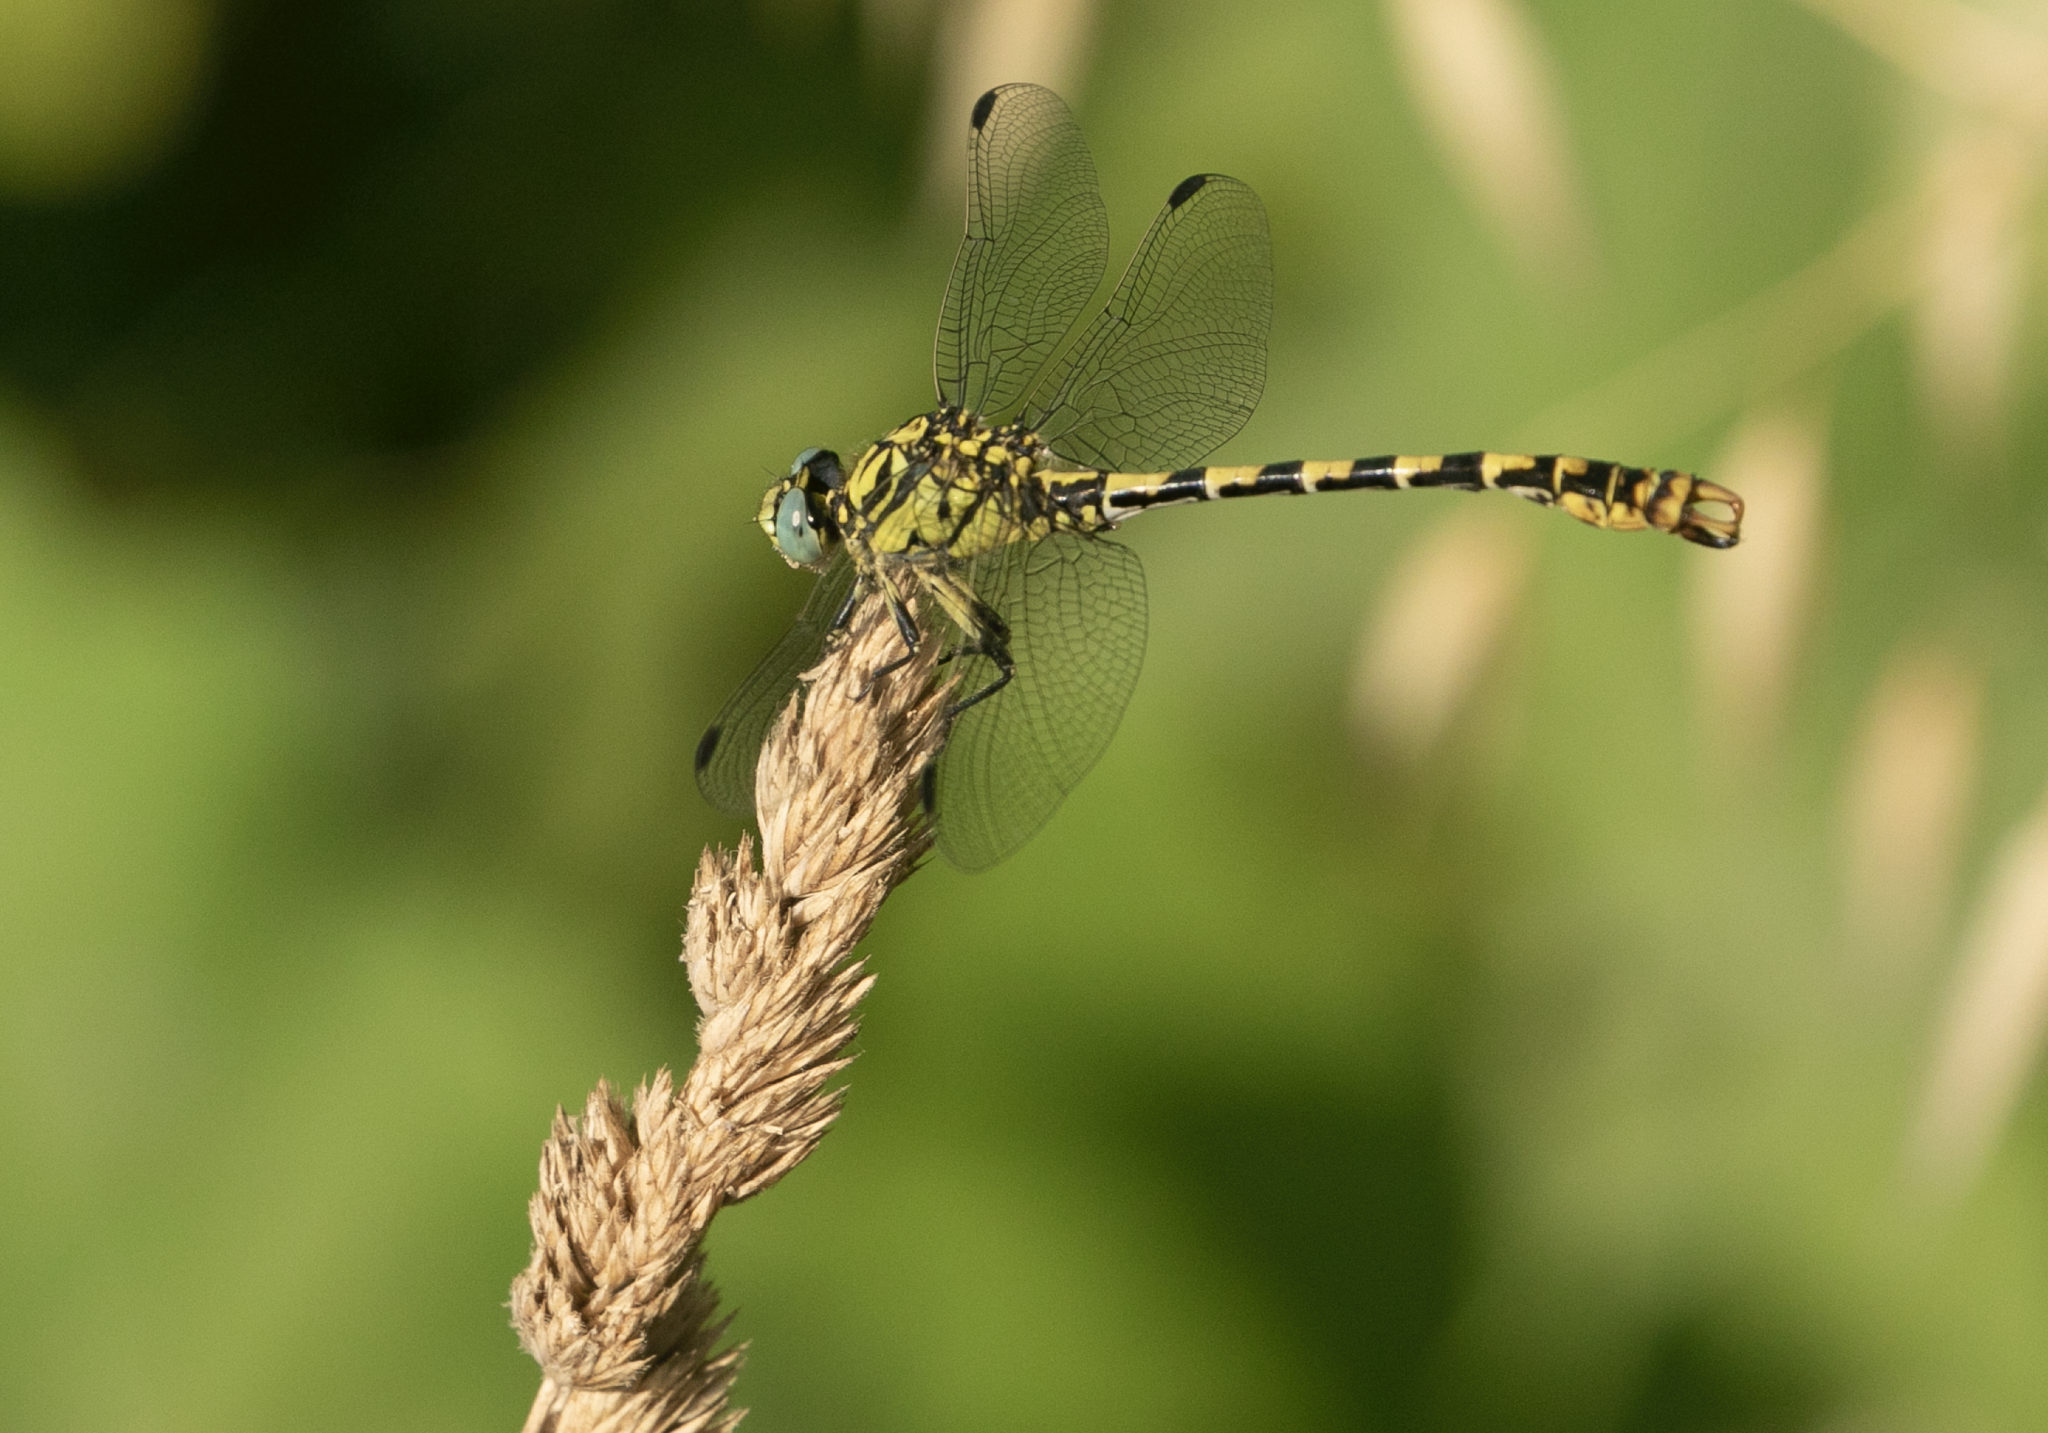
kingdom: Animalia
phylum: Arthropoda
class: Insecta
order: Odonata
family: Gomphidae
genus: Onychogomphus
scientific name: Onychogomphus forcipatus
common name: Small pincertail
